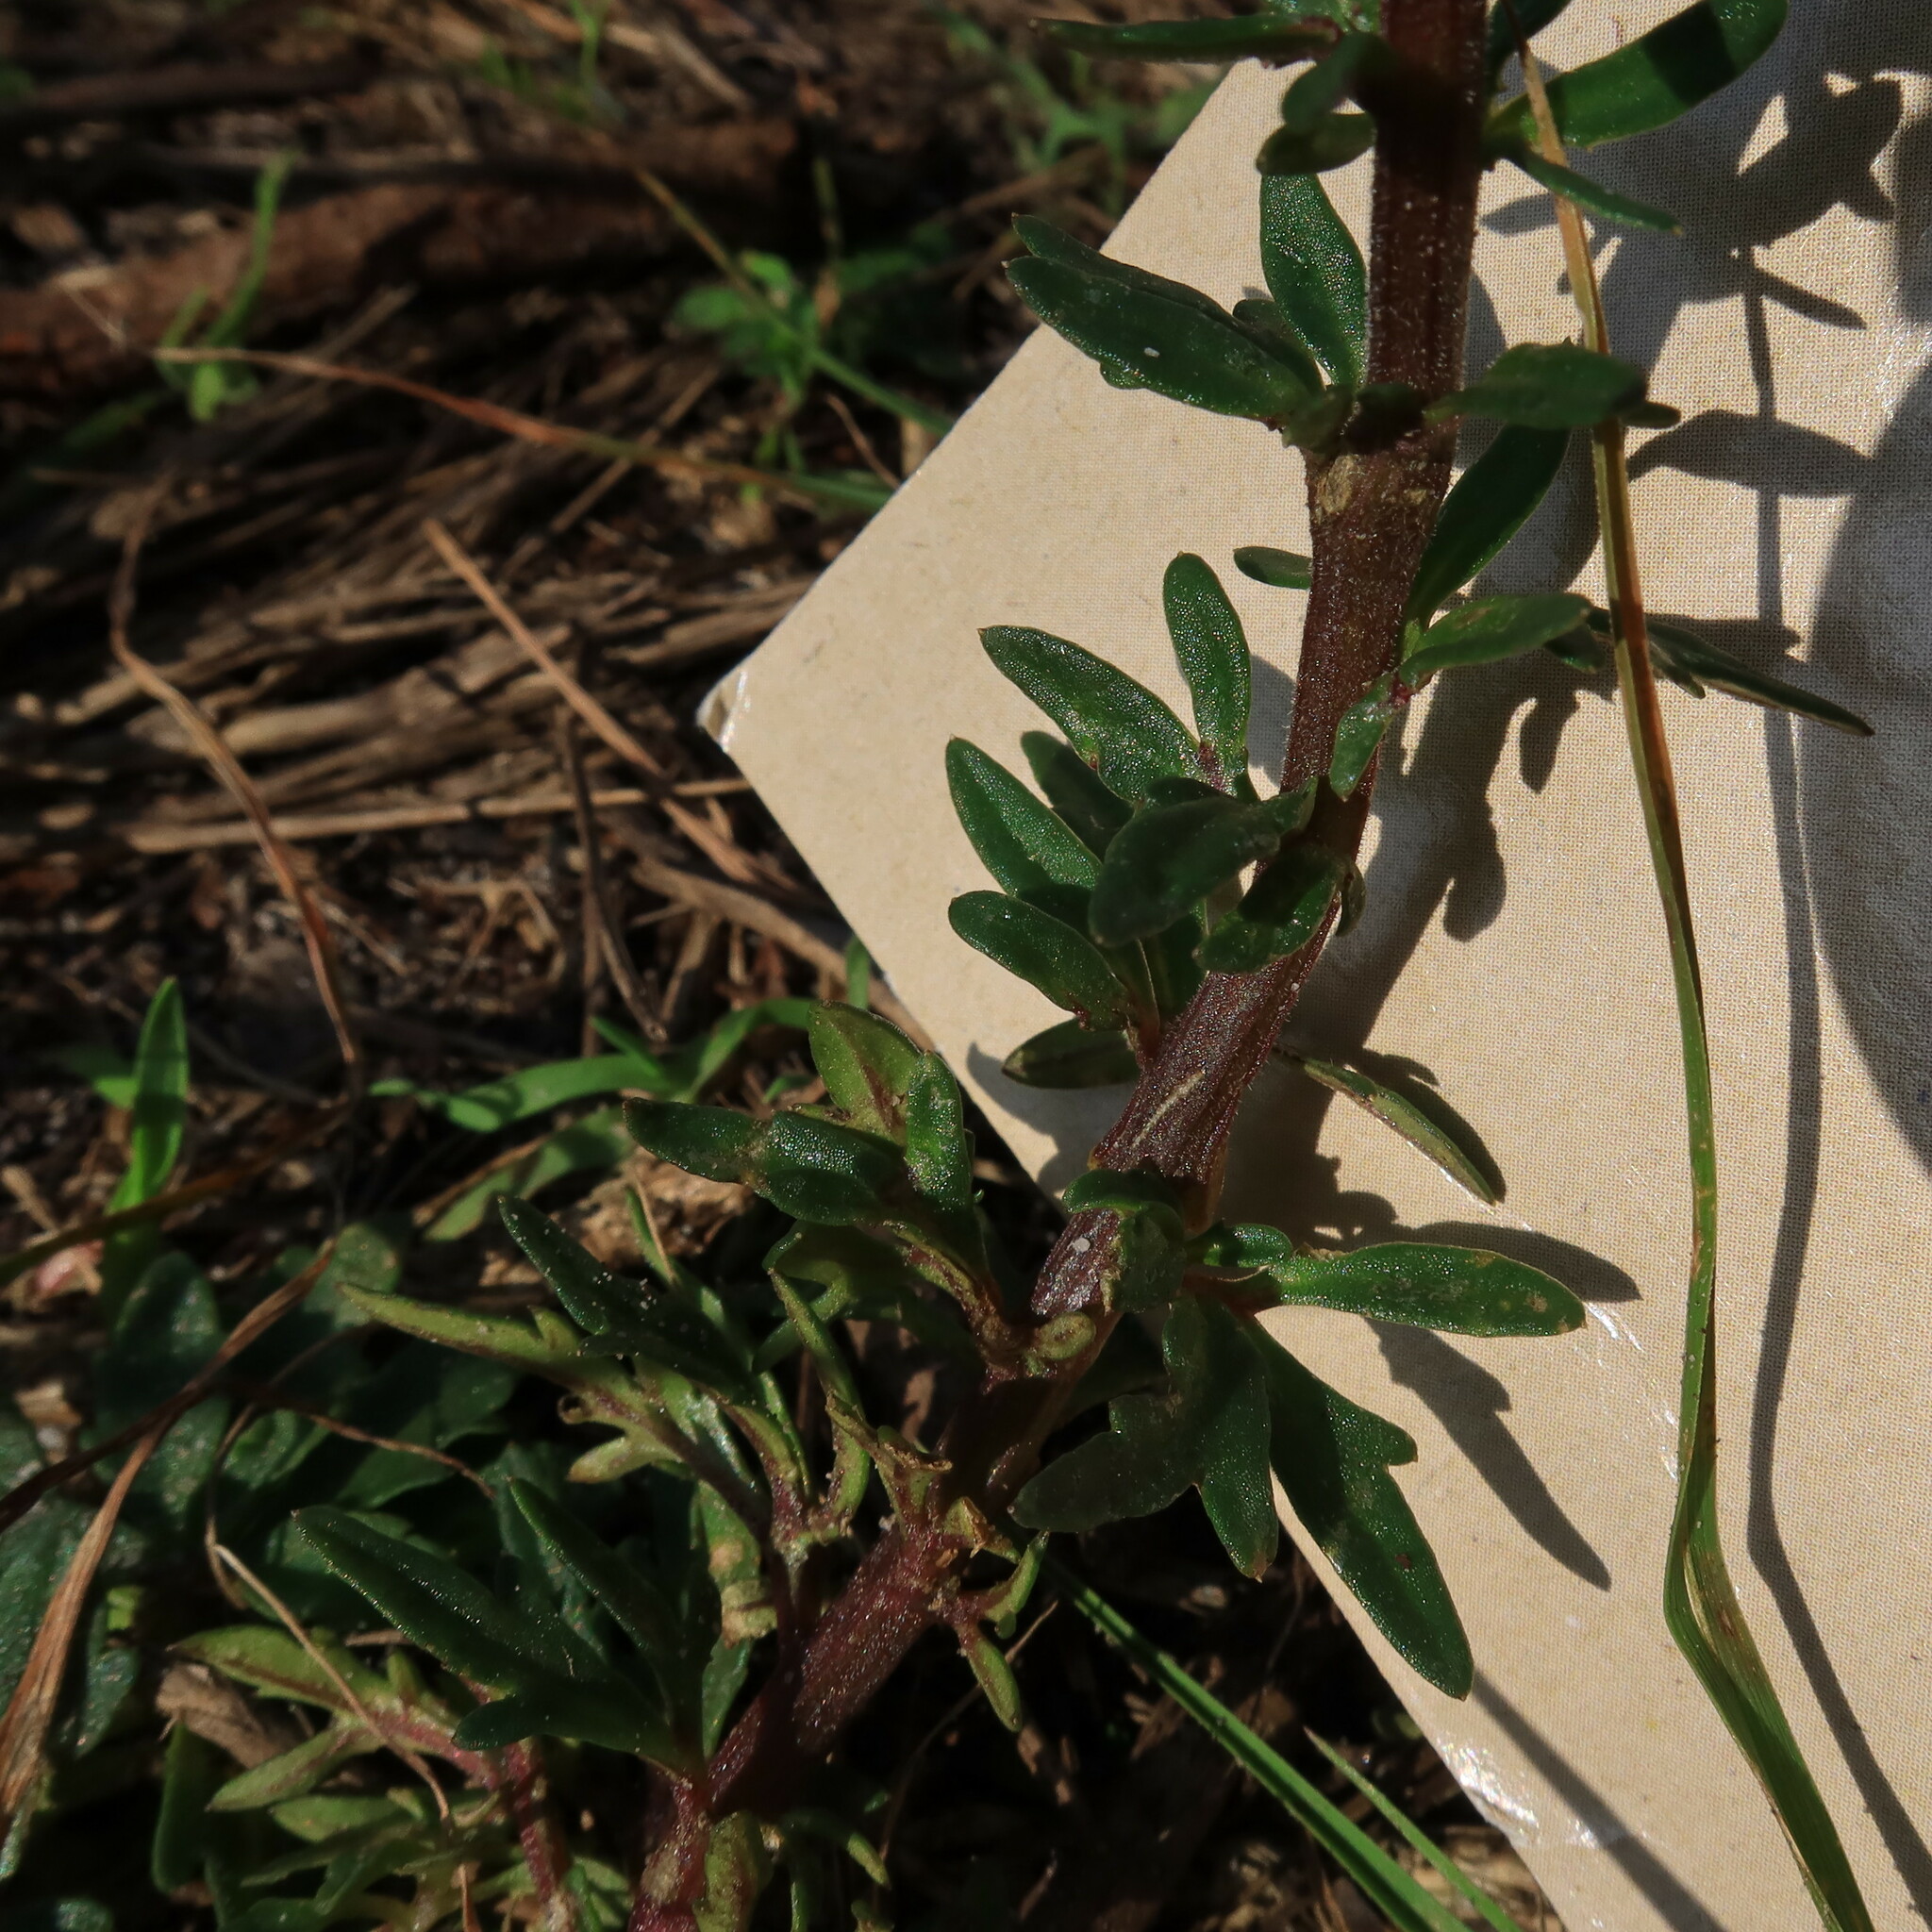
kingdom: Plantae
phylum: Tracheophyta
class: Magnoliopsida
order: Asterales
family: Campanulaceae
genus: Cyphia
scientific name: Cyphia bulbosa
